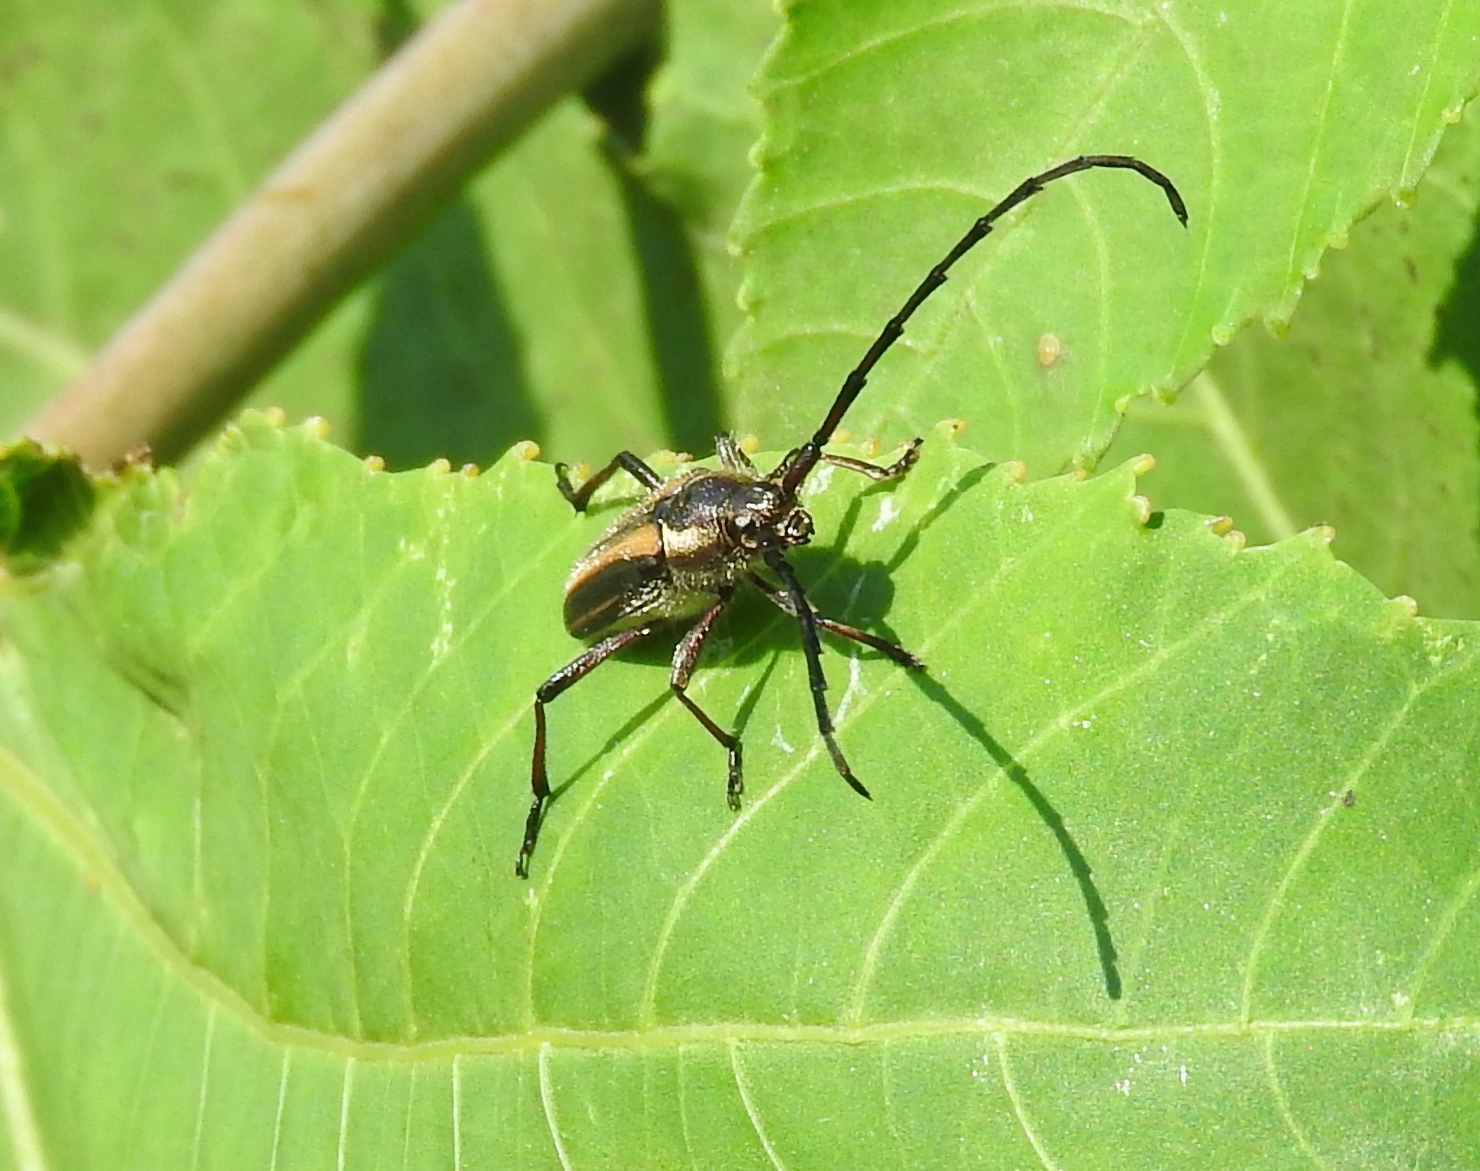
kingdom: Animalia
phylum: Arthropoda
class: Insecta
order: Coleoptera
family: Cerambycidae
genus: Sphaenothecus
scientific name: Sphaenothecus bilineatus
